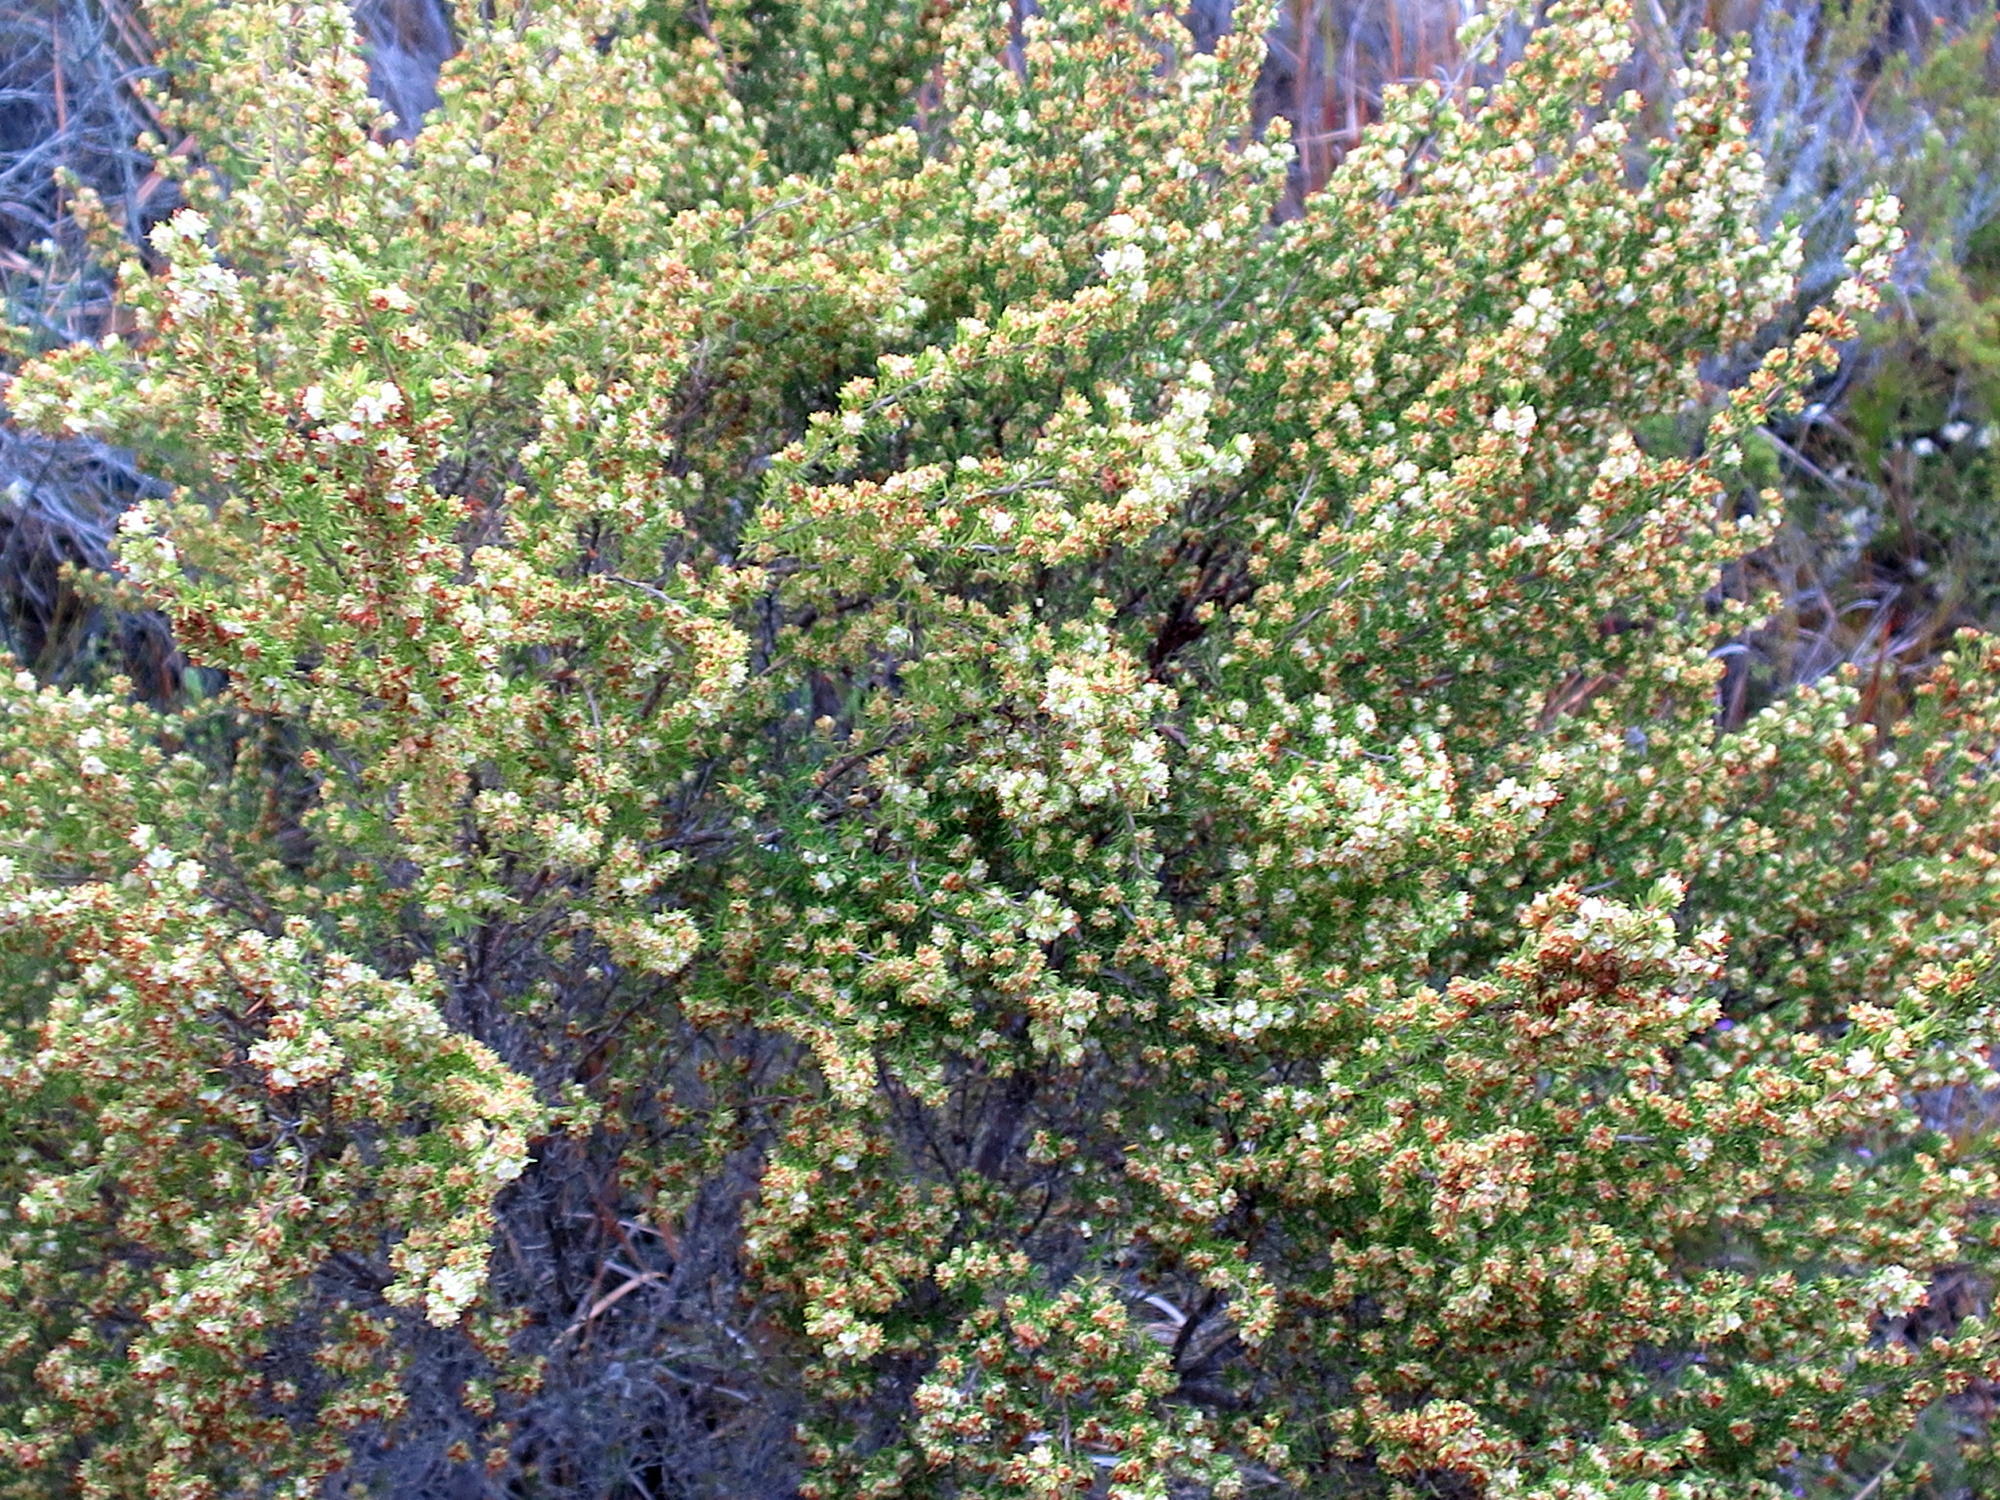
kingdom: Plantae
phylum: Tracheophyta
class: Magnoliopsida
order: Ericales
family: Ericaceae
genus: Erica
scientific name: Erica glumiflora
